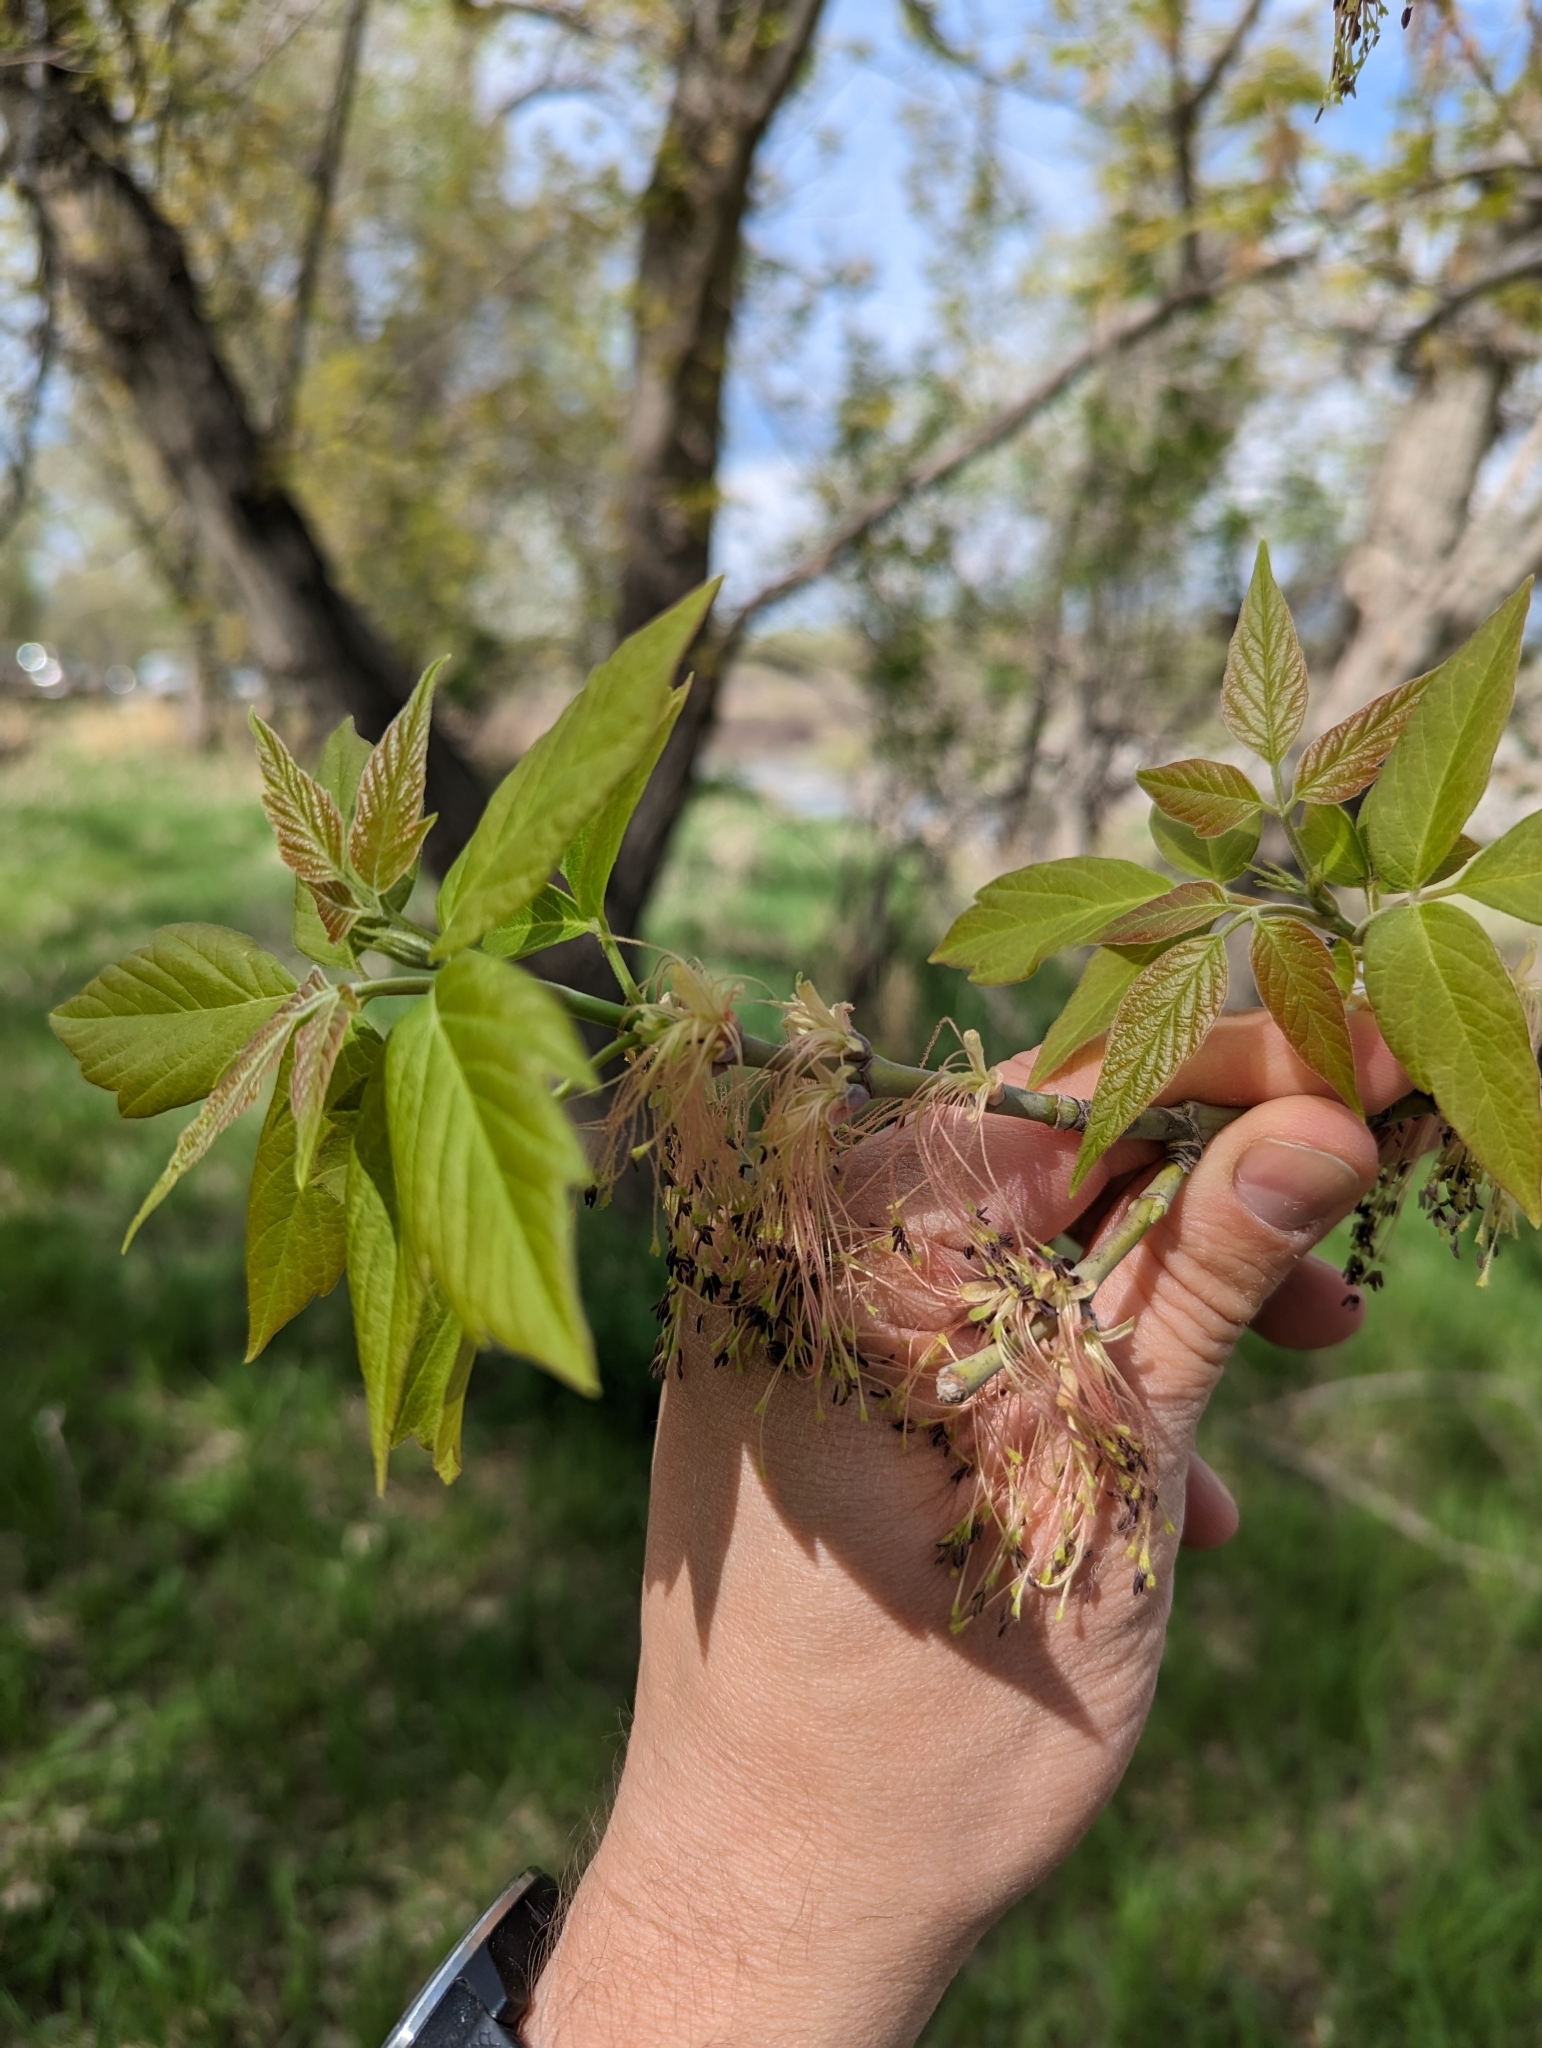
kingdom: Plantae
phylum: Tracheophyta
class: Magnoliopsida
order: Sapindales
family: Sapindaceae
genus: Acer
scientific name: Acer negundo
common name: Ashleaf maple
